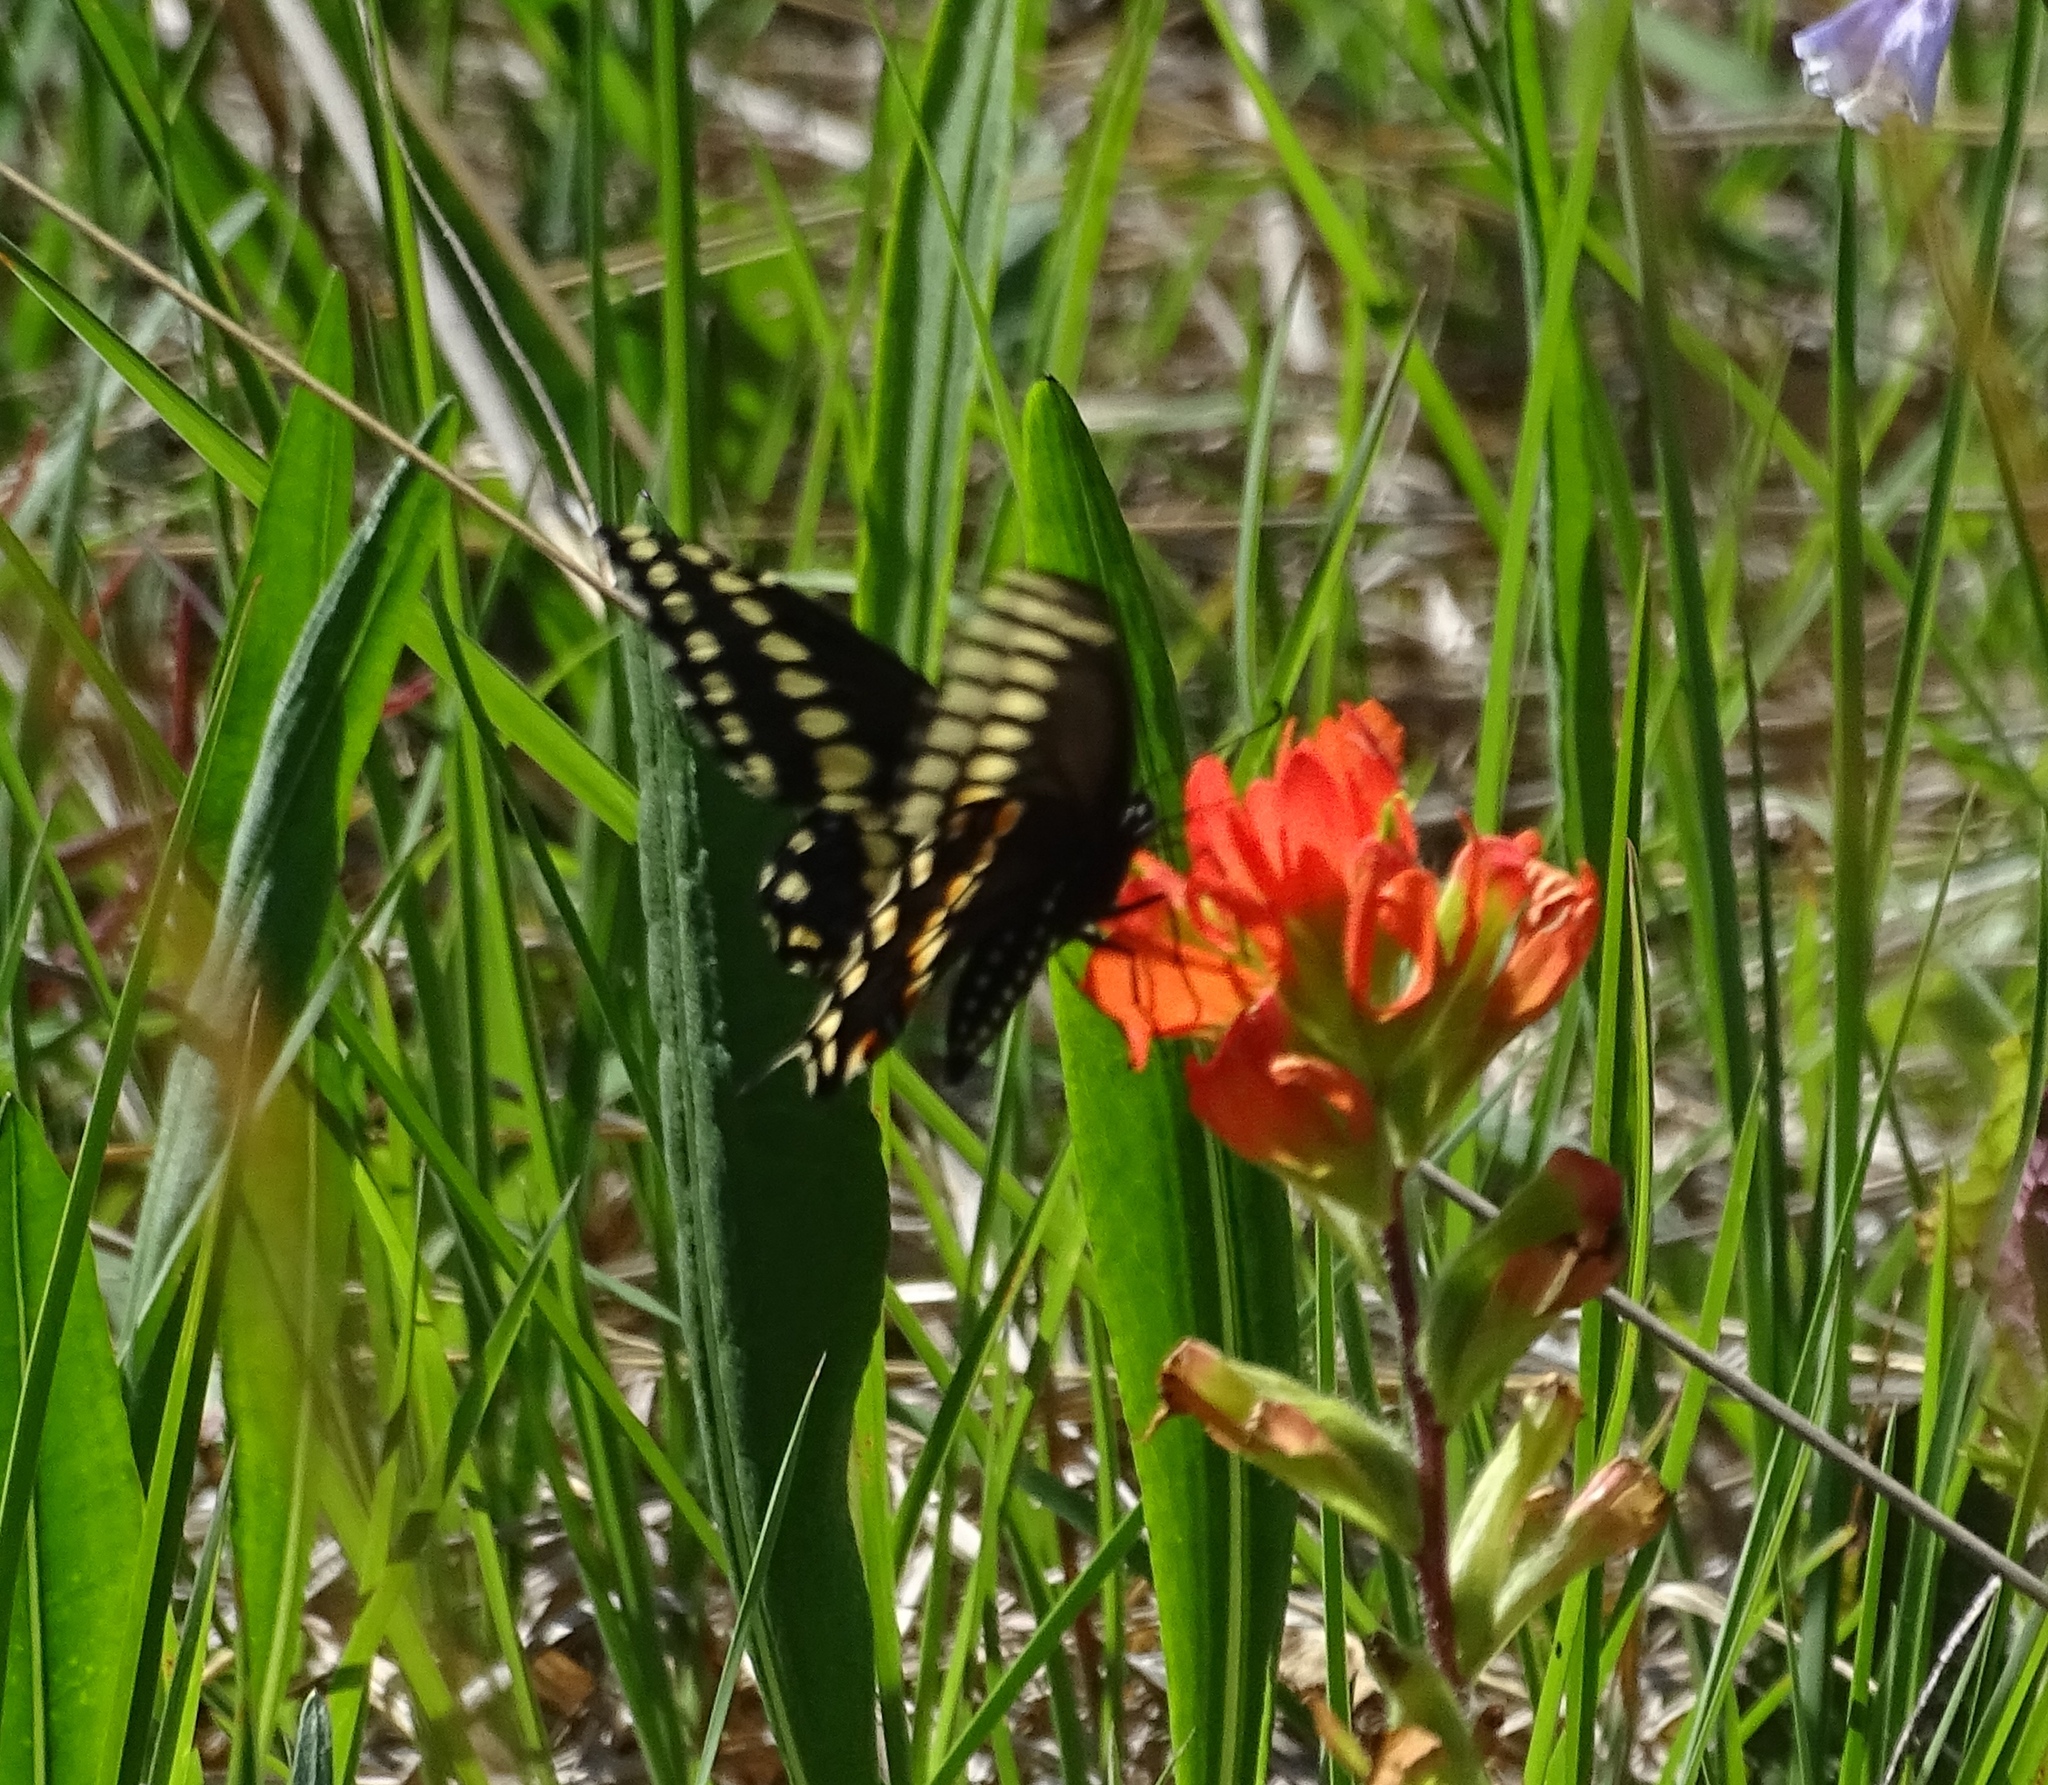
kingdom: Plantae
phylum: Tracheophyta
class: Magnoliopsida
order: Lamiales
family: Orobanchaceae
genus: Castilleja
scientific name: Castilleja coccinea
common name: Scarlet paintbrush
